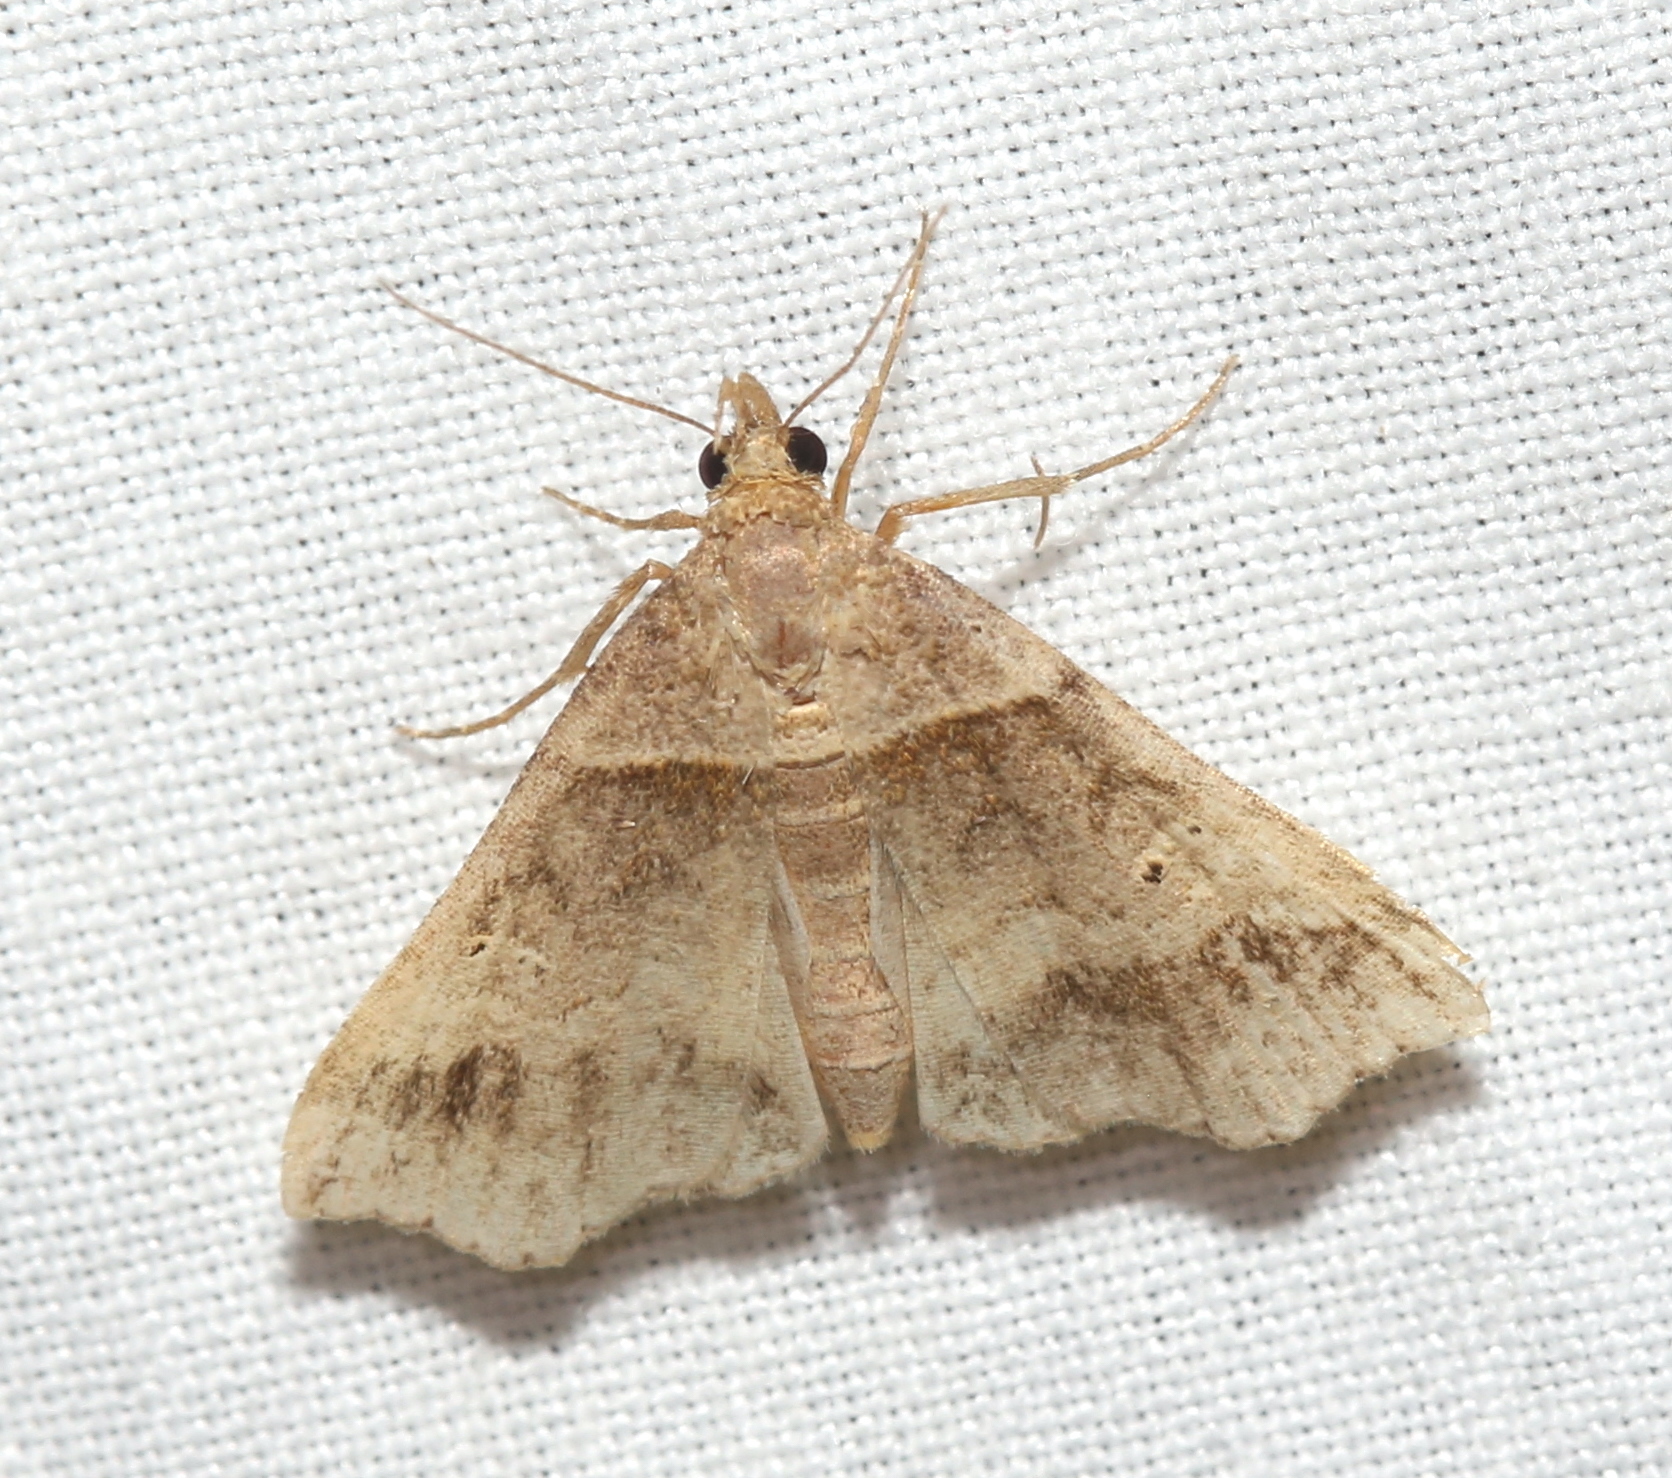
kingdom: Animalia
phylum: Arthropoda
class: Insecta
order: Lepidoptera
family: Erebidae
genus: Phaeolita
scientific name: Phaeolita pyramusalis
